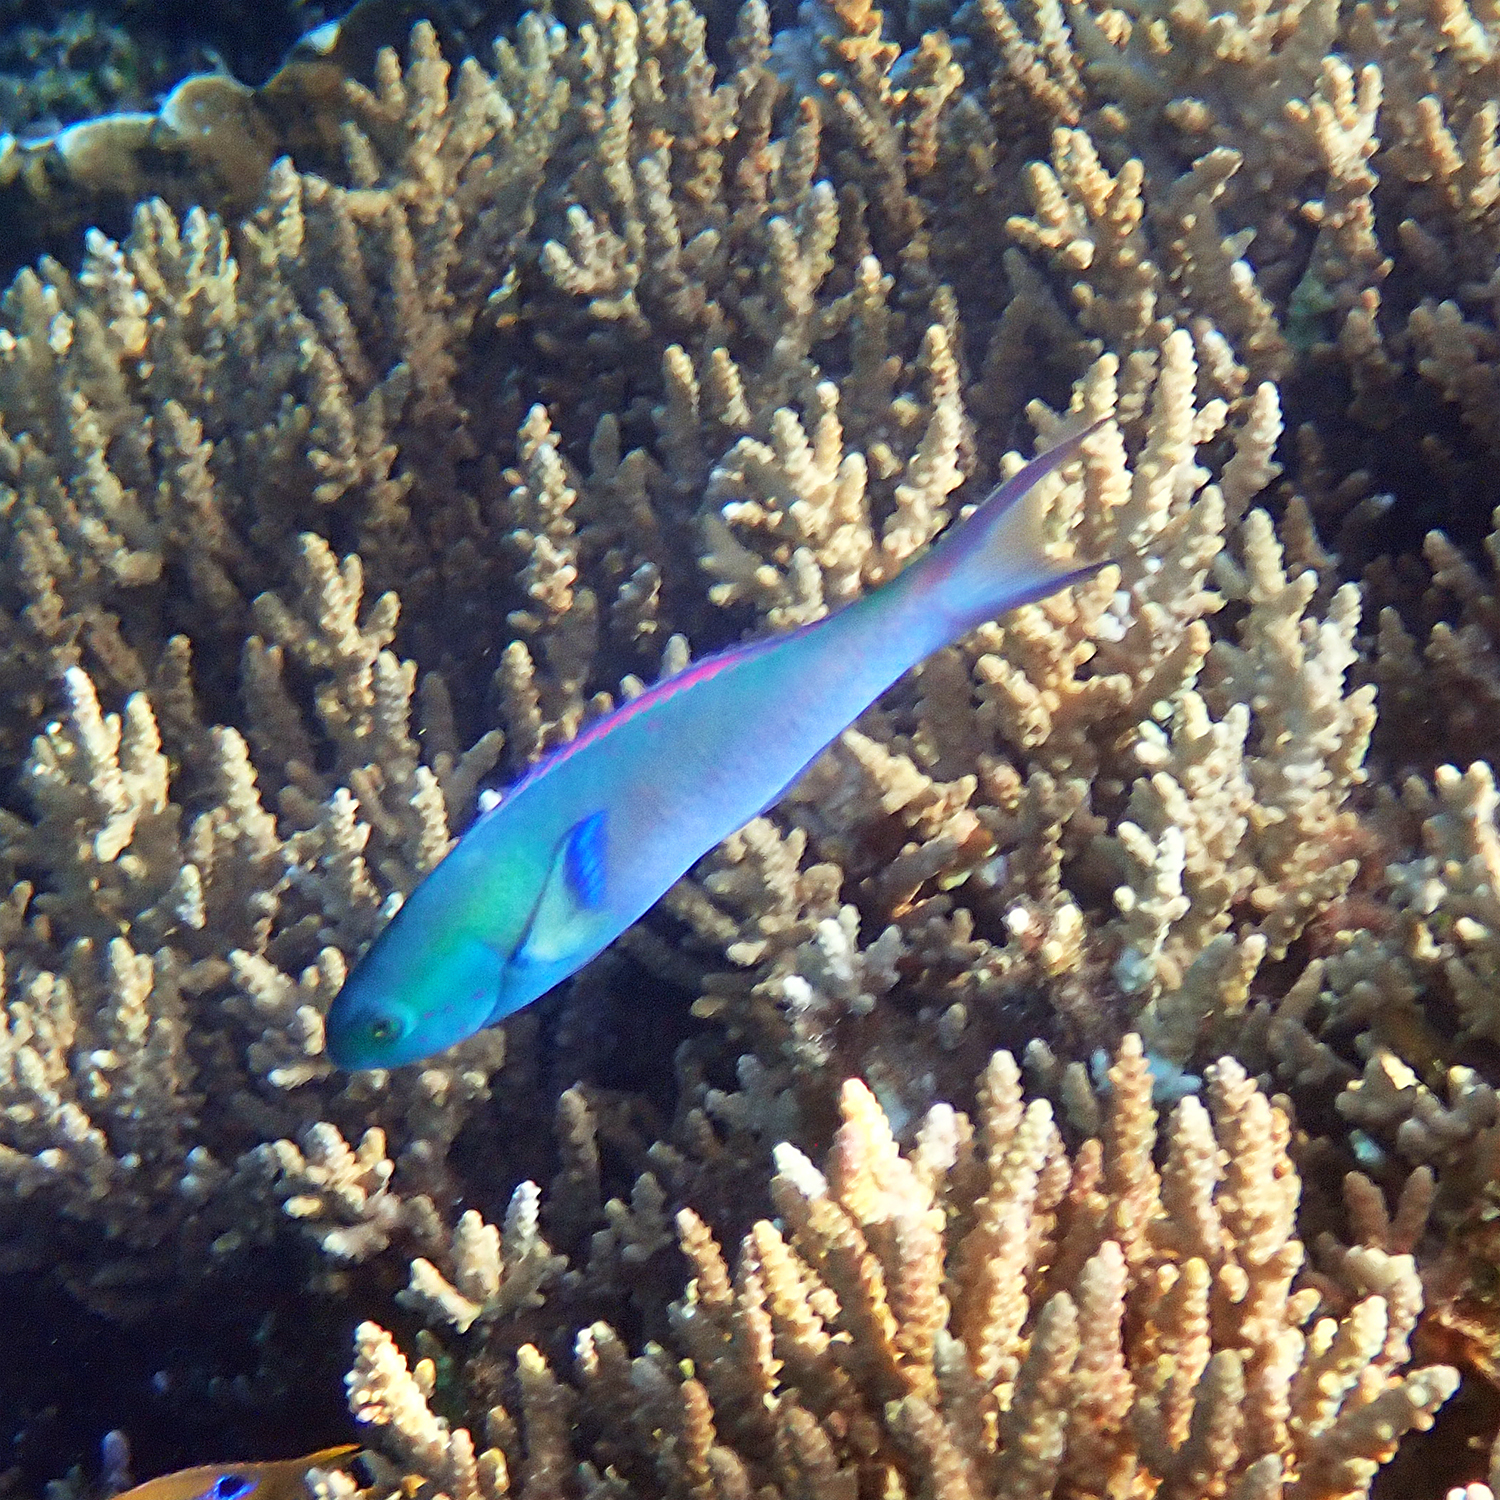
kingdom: Animalia
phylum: Chordata
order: Perciformes
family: Labridae
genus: Thalassoma
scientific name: Thalassoma amblycephalum
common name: Bluehead wrasse
